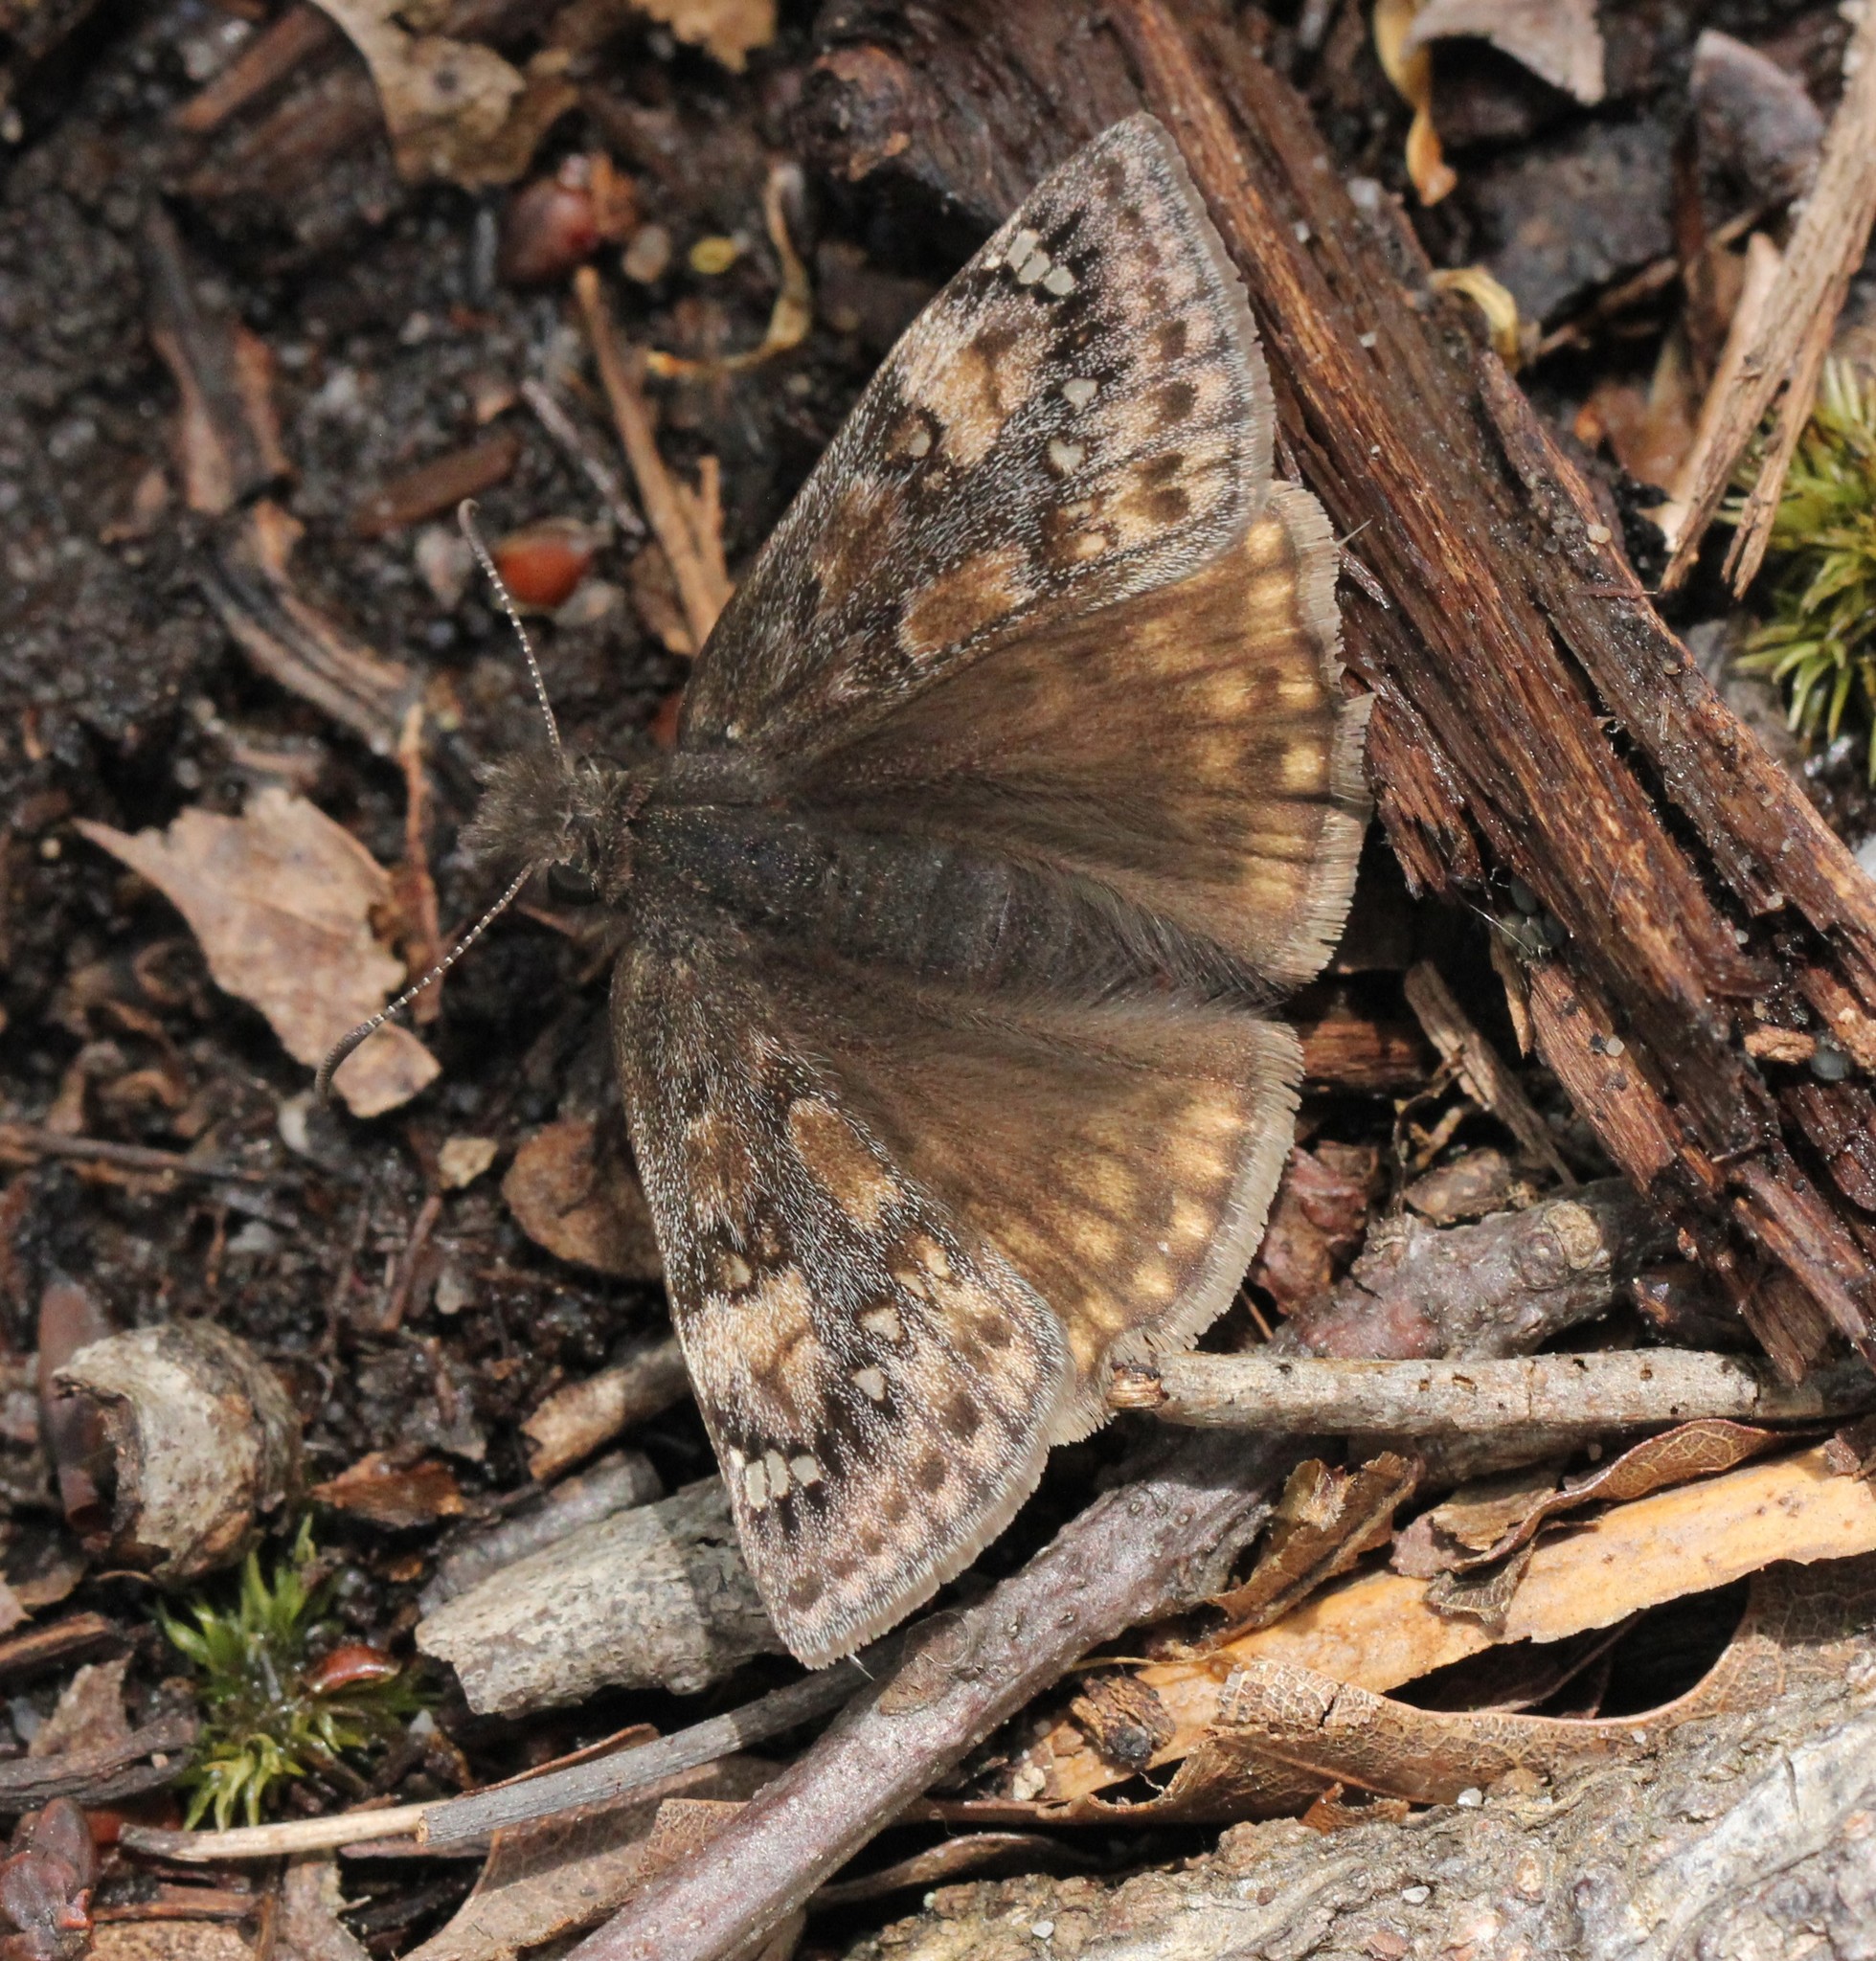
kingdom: Animalia
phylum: Arthropoda
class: Insecta
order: Lepidoptera
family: Hesperiidae
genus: Erynnis
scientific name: Erynnis juvenalis
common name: Juvenal's duskywing
